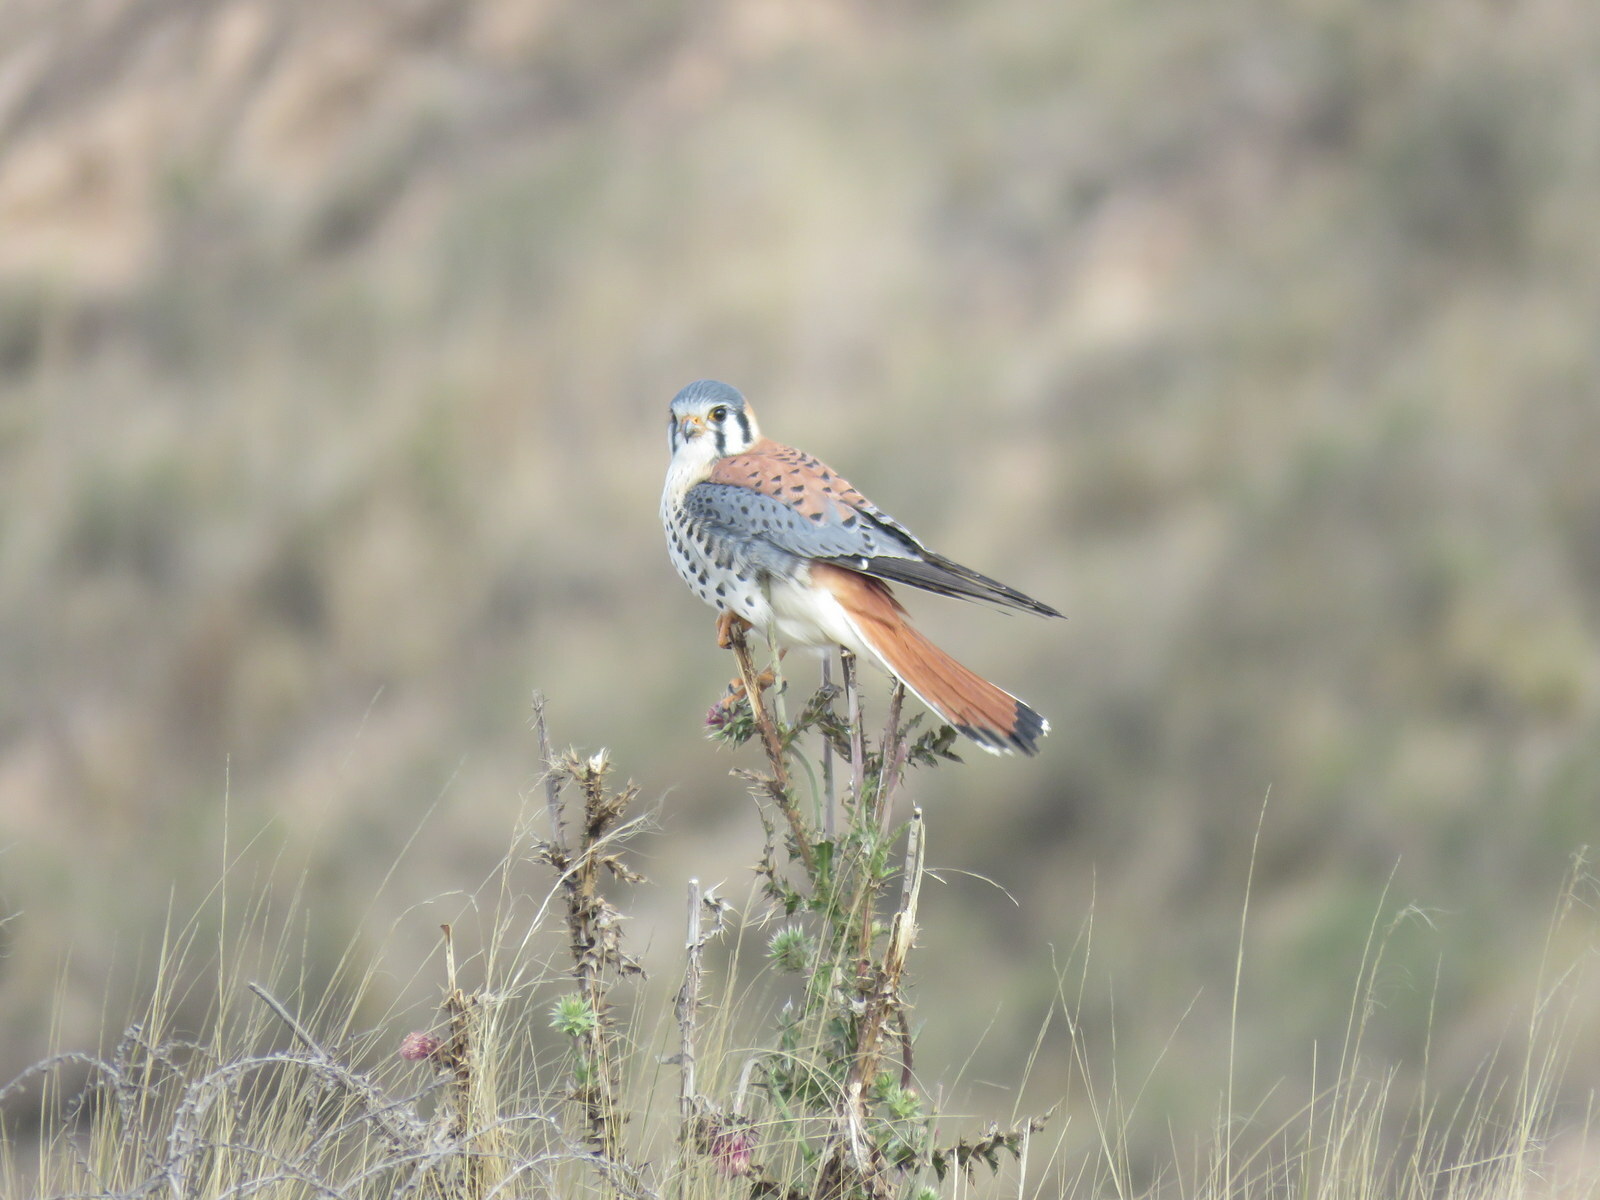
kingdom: Animalia
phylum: Chordata
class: Aves
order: Falconiformes
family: Falconidae
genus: Falco
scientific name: Falco sparverius
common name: American kestrel
